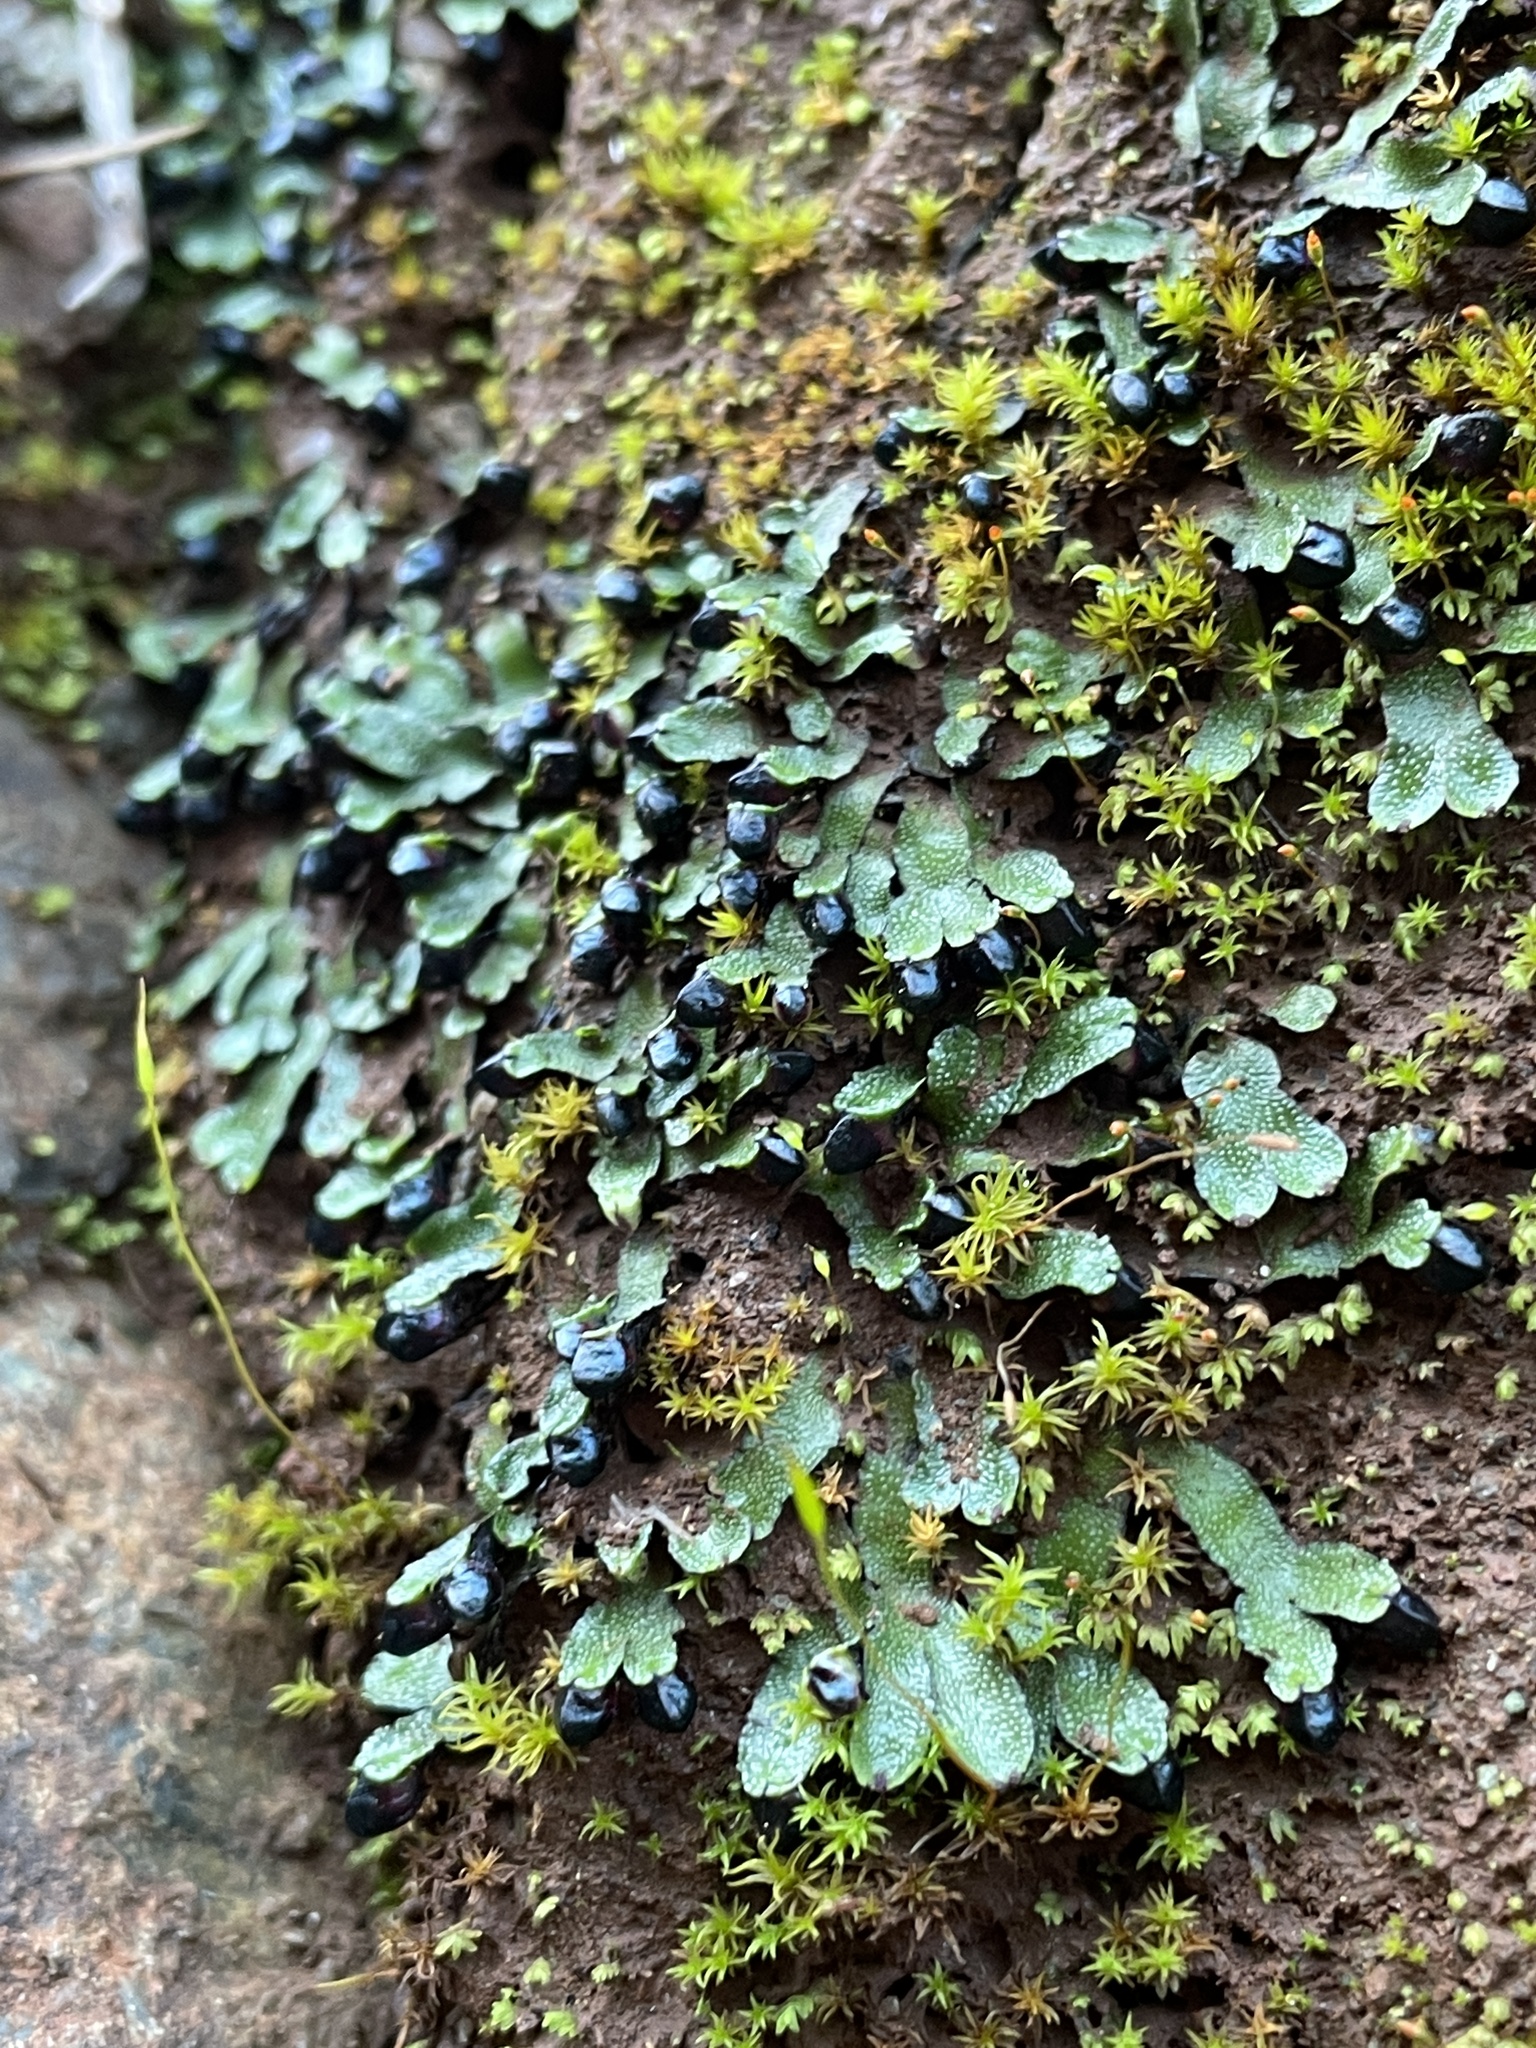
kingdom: Plantae
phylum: Marchantiophyta
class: Marchantiopsida
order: Marchantiales
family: Targioniaceae
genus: Targionia
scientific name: Targionia hypophylla
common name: Orobus-seed liverwort
